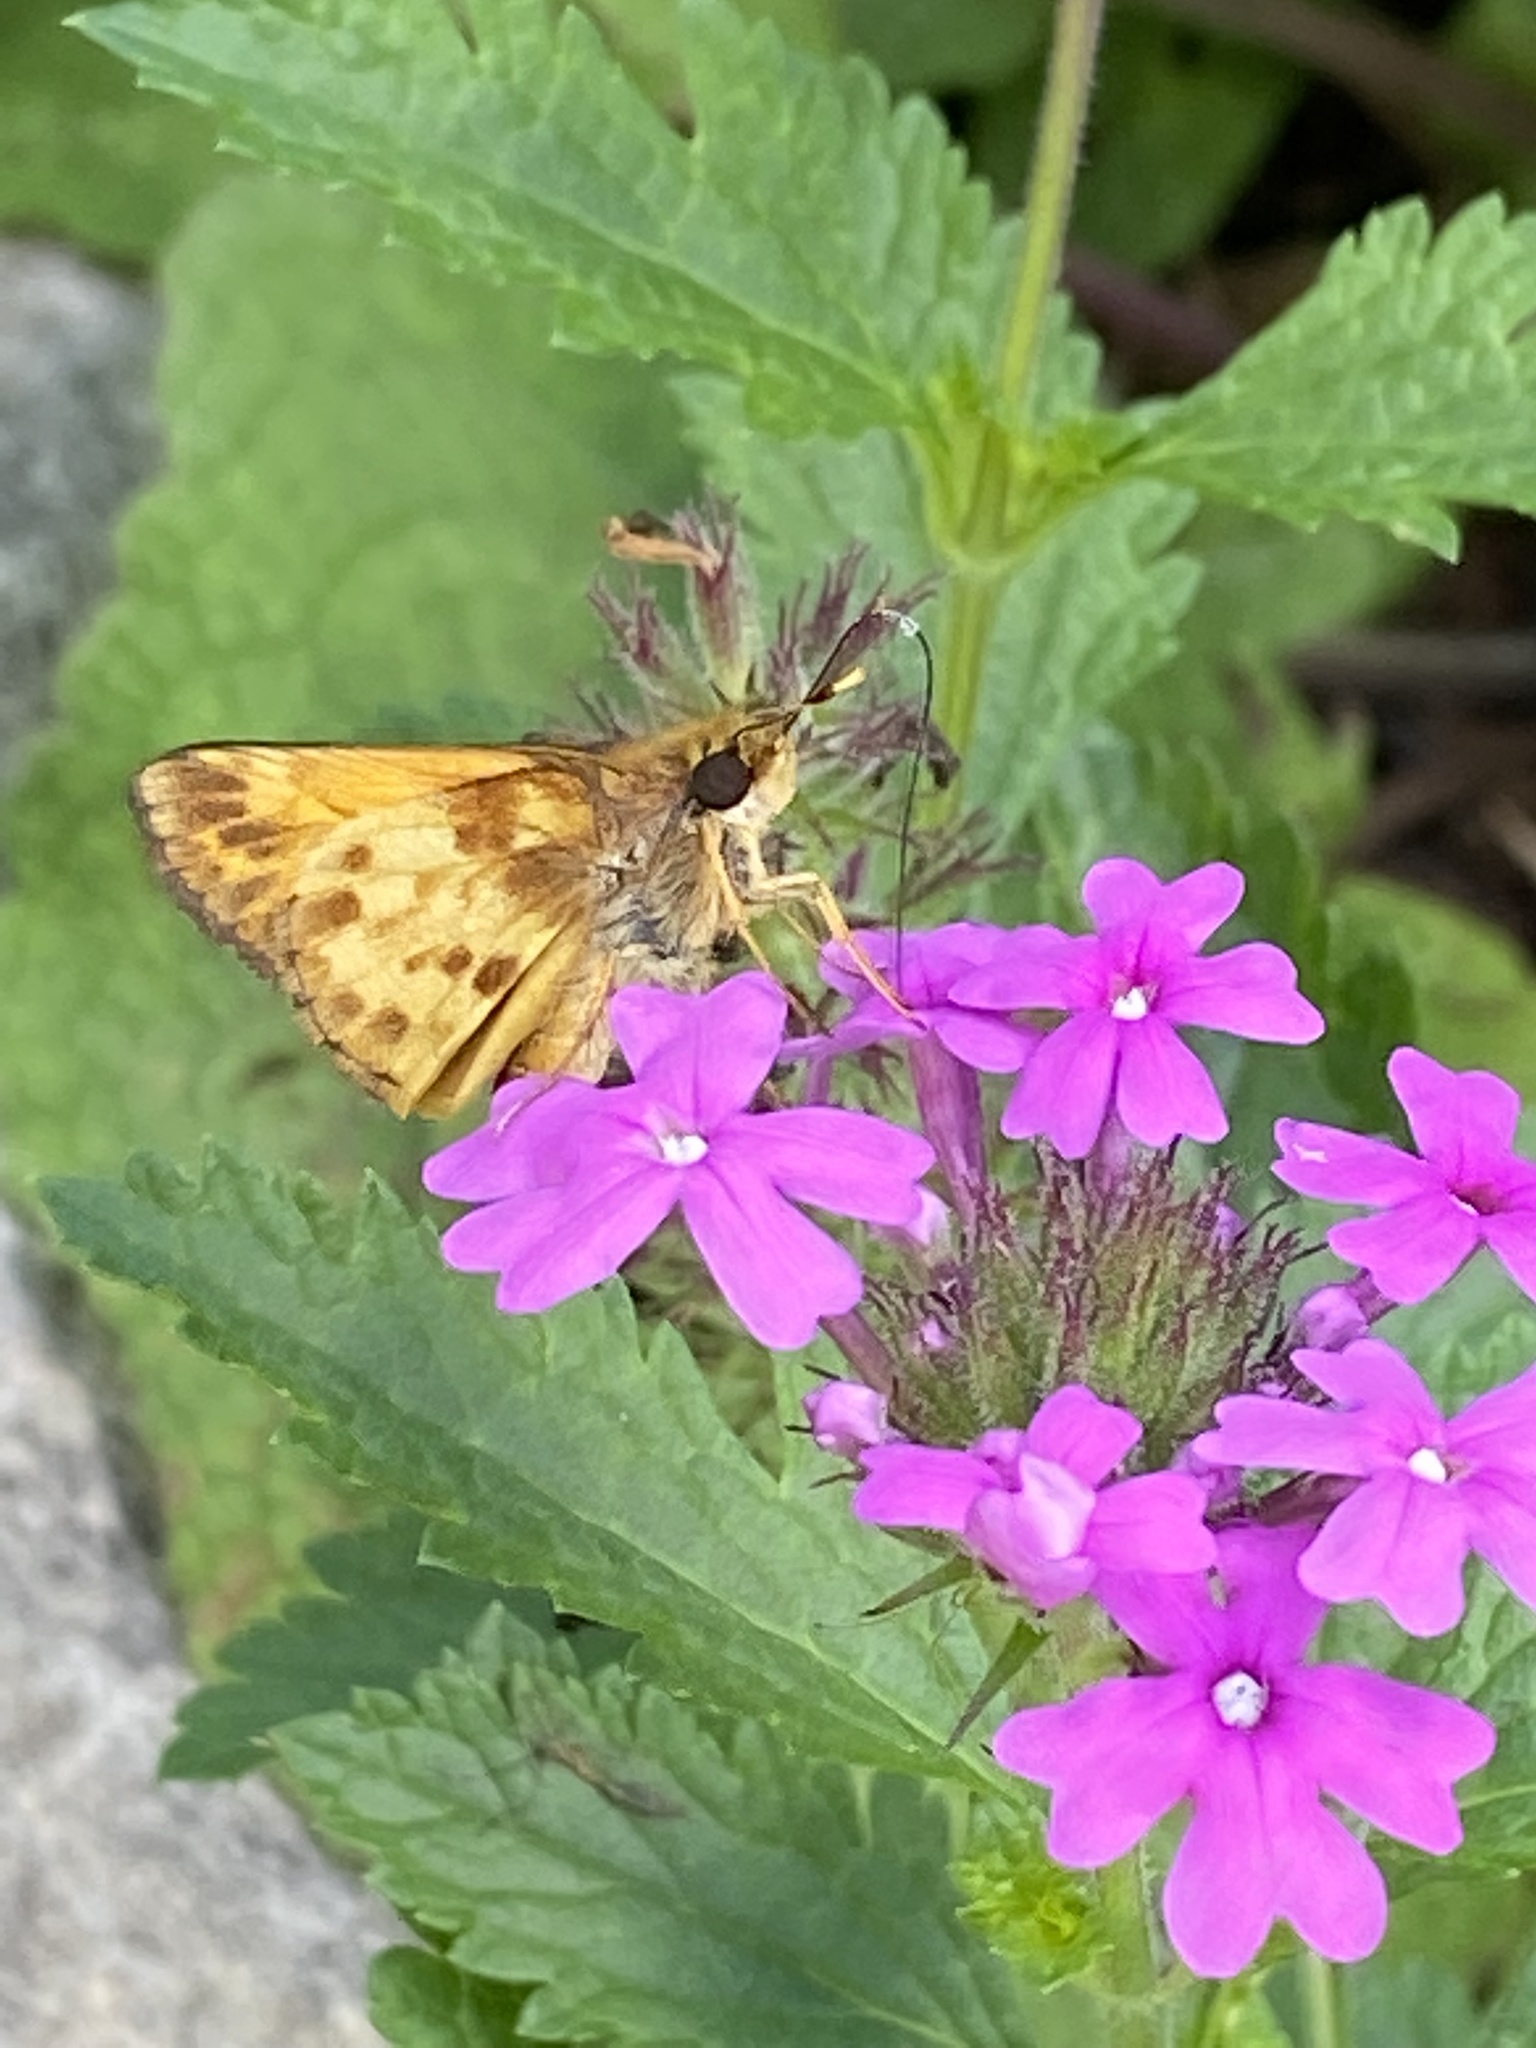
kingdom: Animalia
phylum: Arthropoda
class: Insecta
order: Lepidoptera
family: Hesperiidae
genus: Lon
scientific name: Lon zabulon
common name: Zabulon skipper
